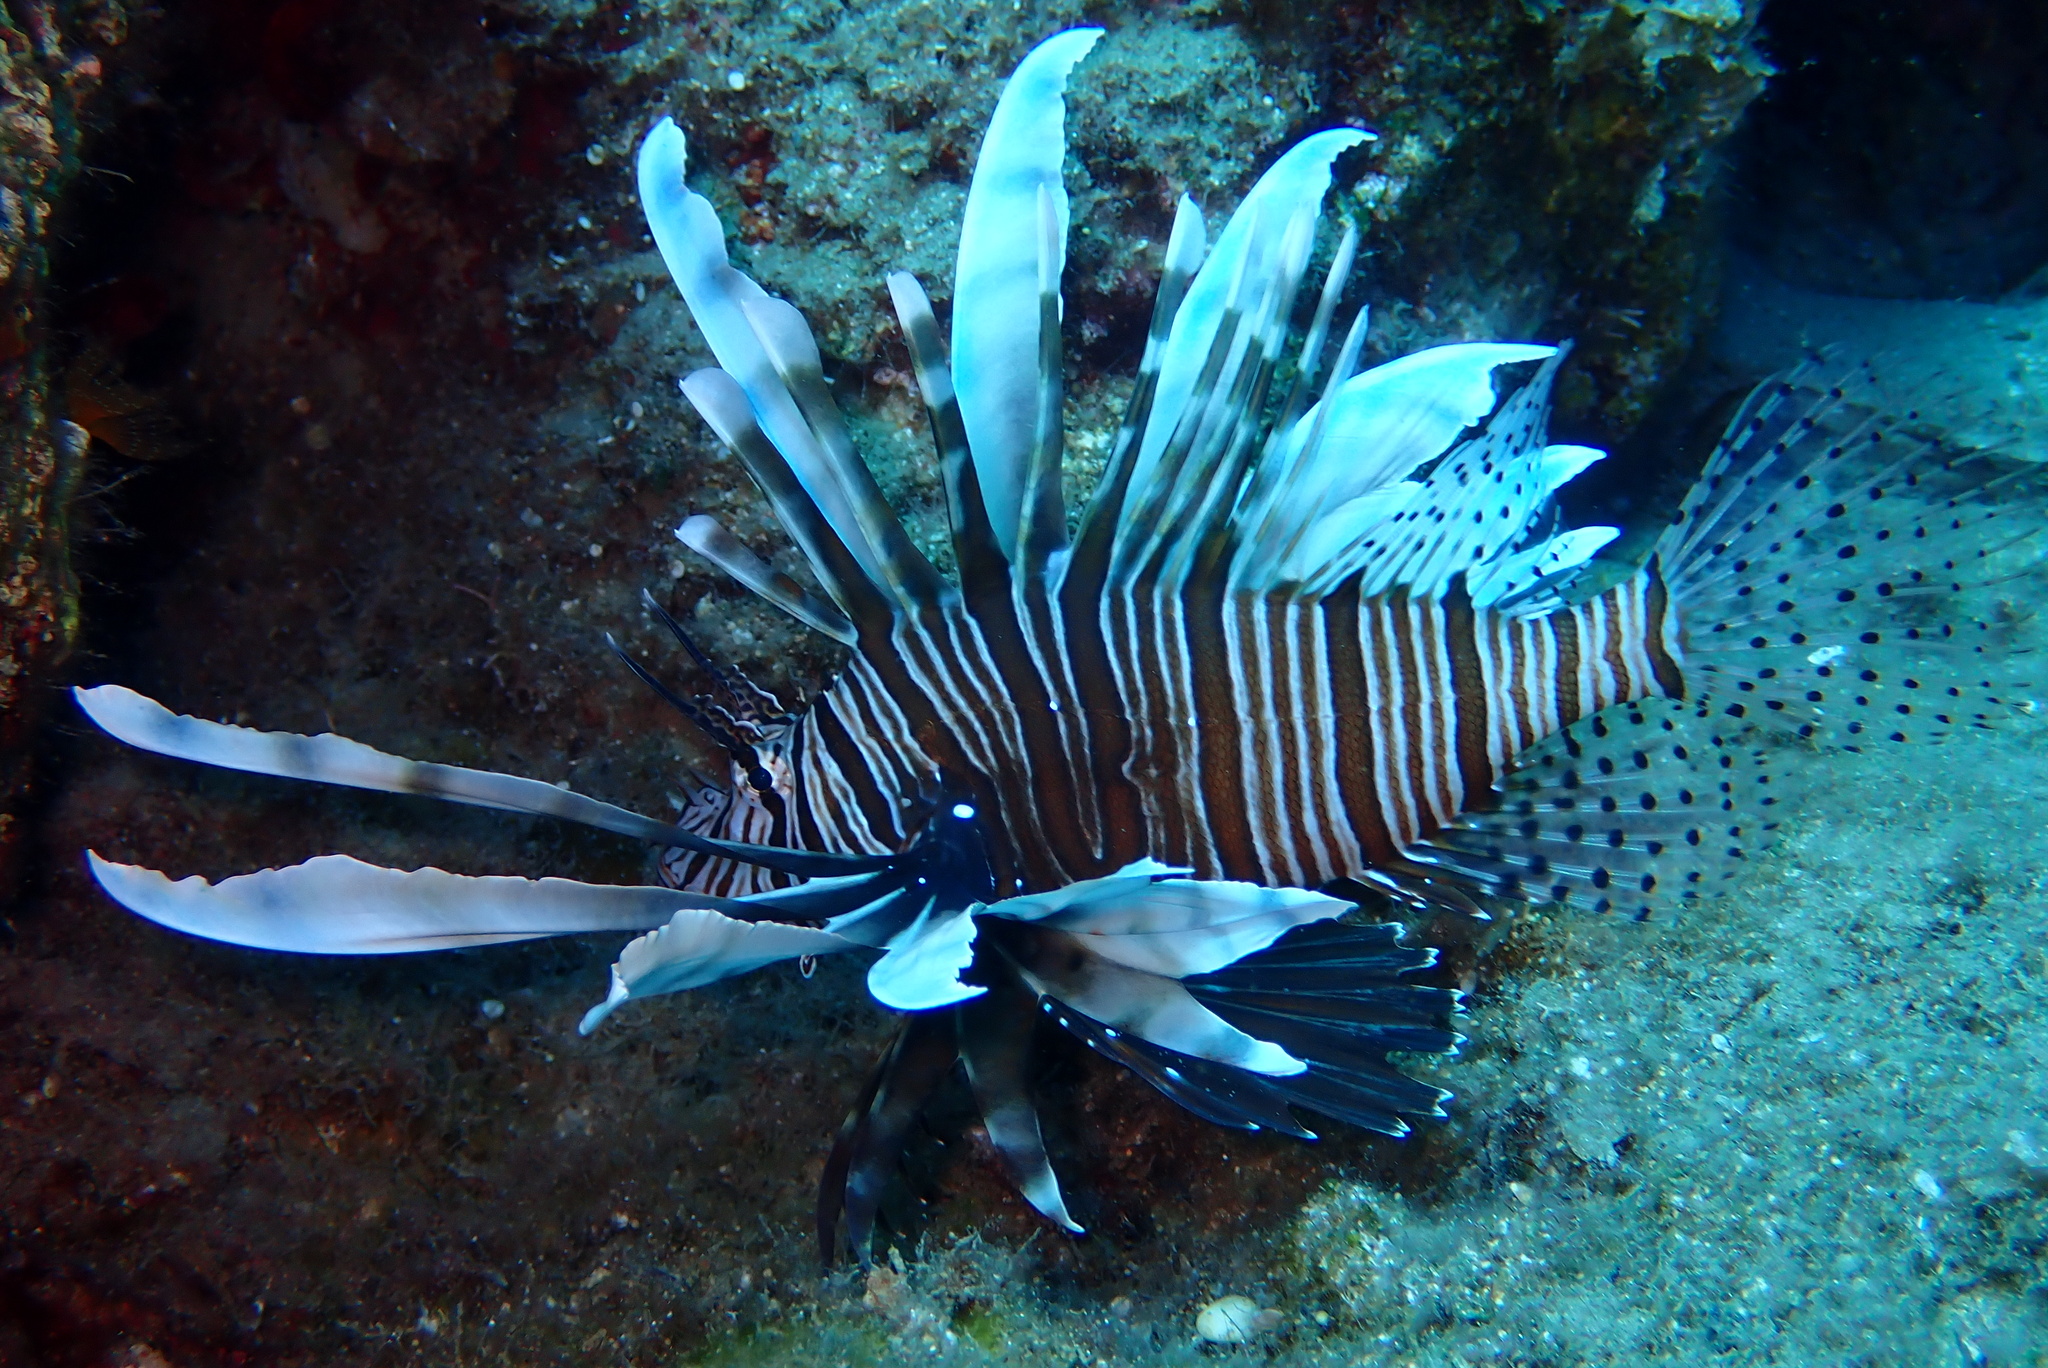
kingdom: Animalia
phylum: Chordata
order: Scorpaeniformes
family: Scorpaenidae
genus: Pterois
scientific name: Pterois miles
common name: Devil firefish
